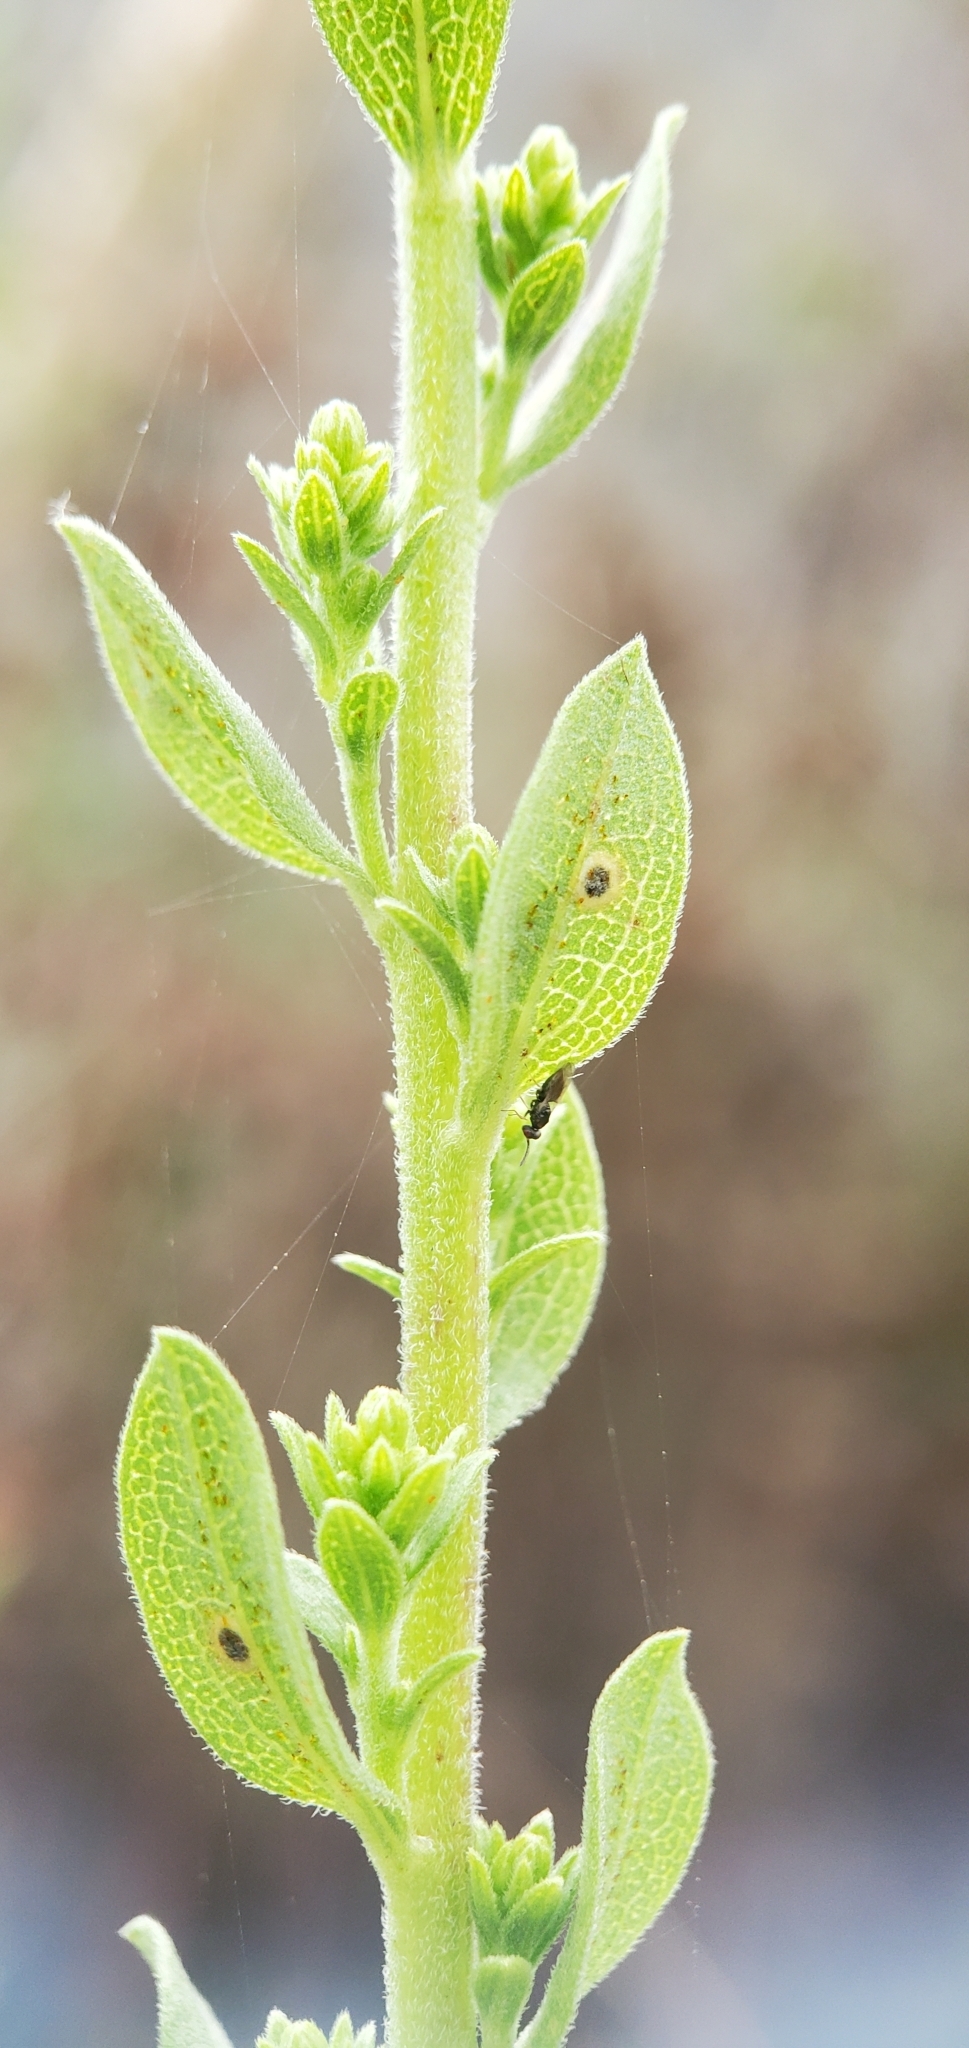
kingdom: Plantae
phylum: Tracheophyta
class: Magnoliopsida
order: Asterales
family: Asteraceae
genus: Solidago
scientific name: Solidago californica
